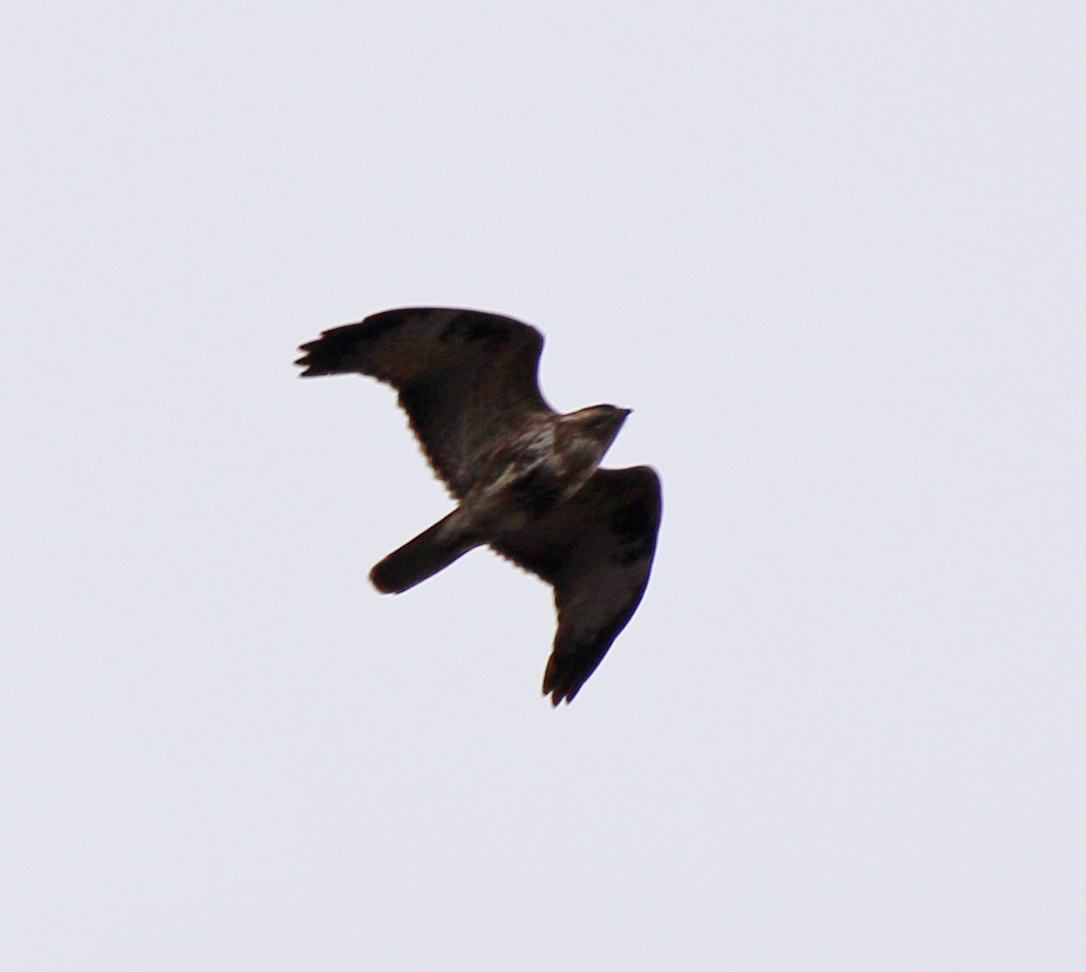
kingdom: Animalia
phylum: Chordata
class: Aves
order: Accipitriformes
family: Accipitridae
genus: Buteo
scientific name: Buteo japonicus
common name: Eastern buzzard
